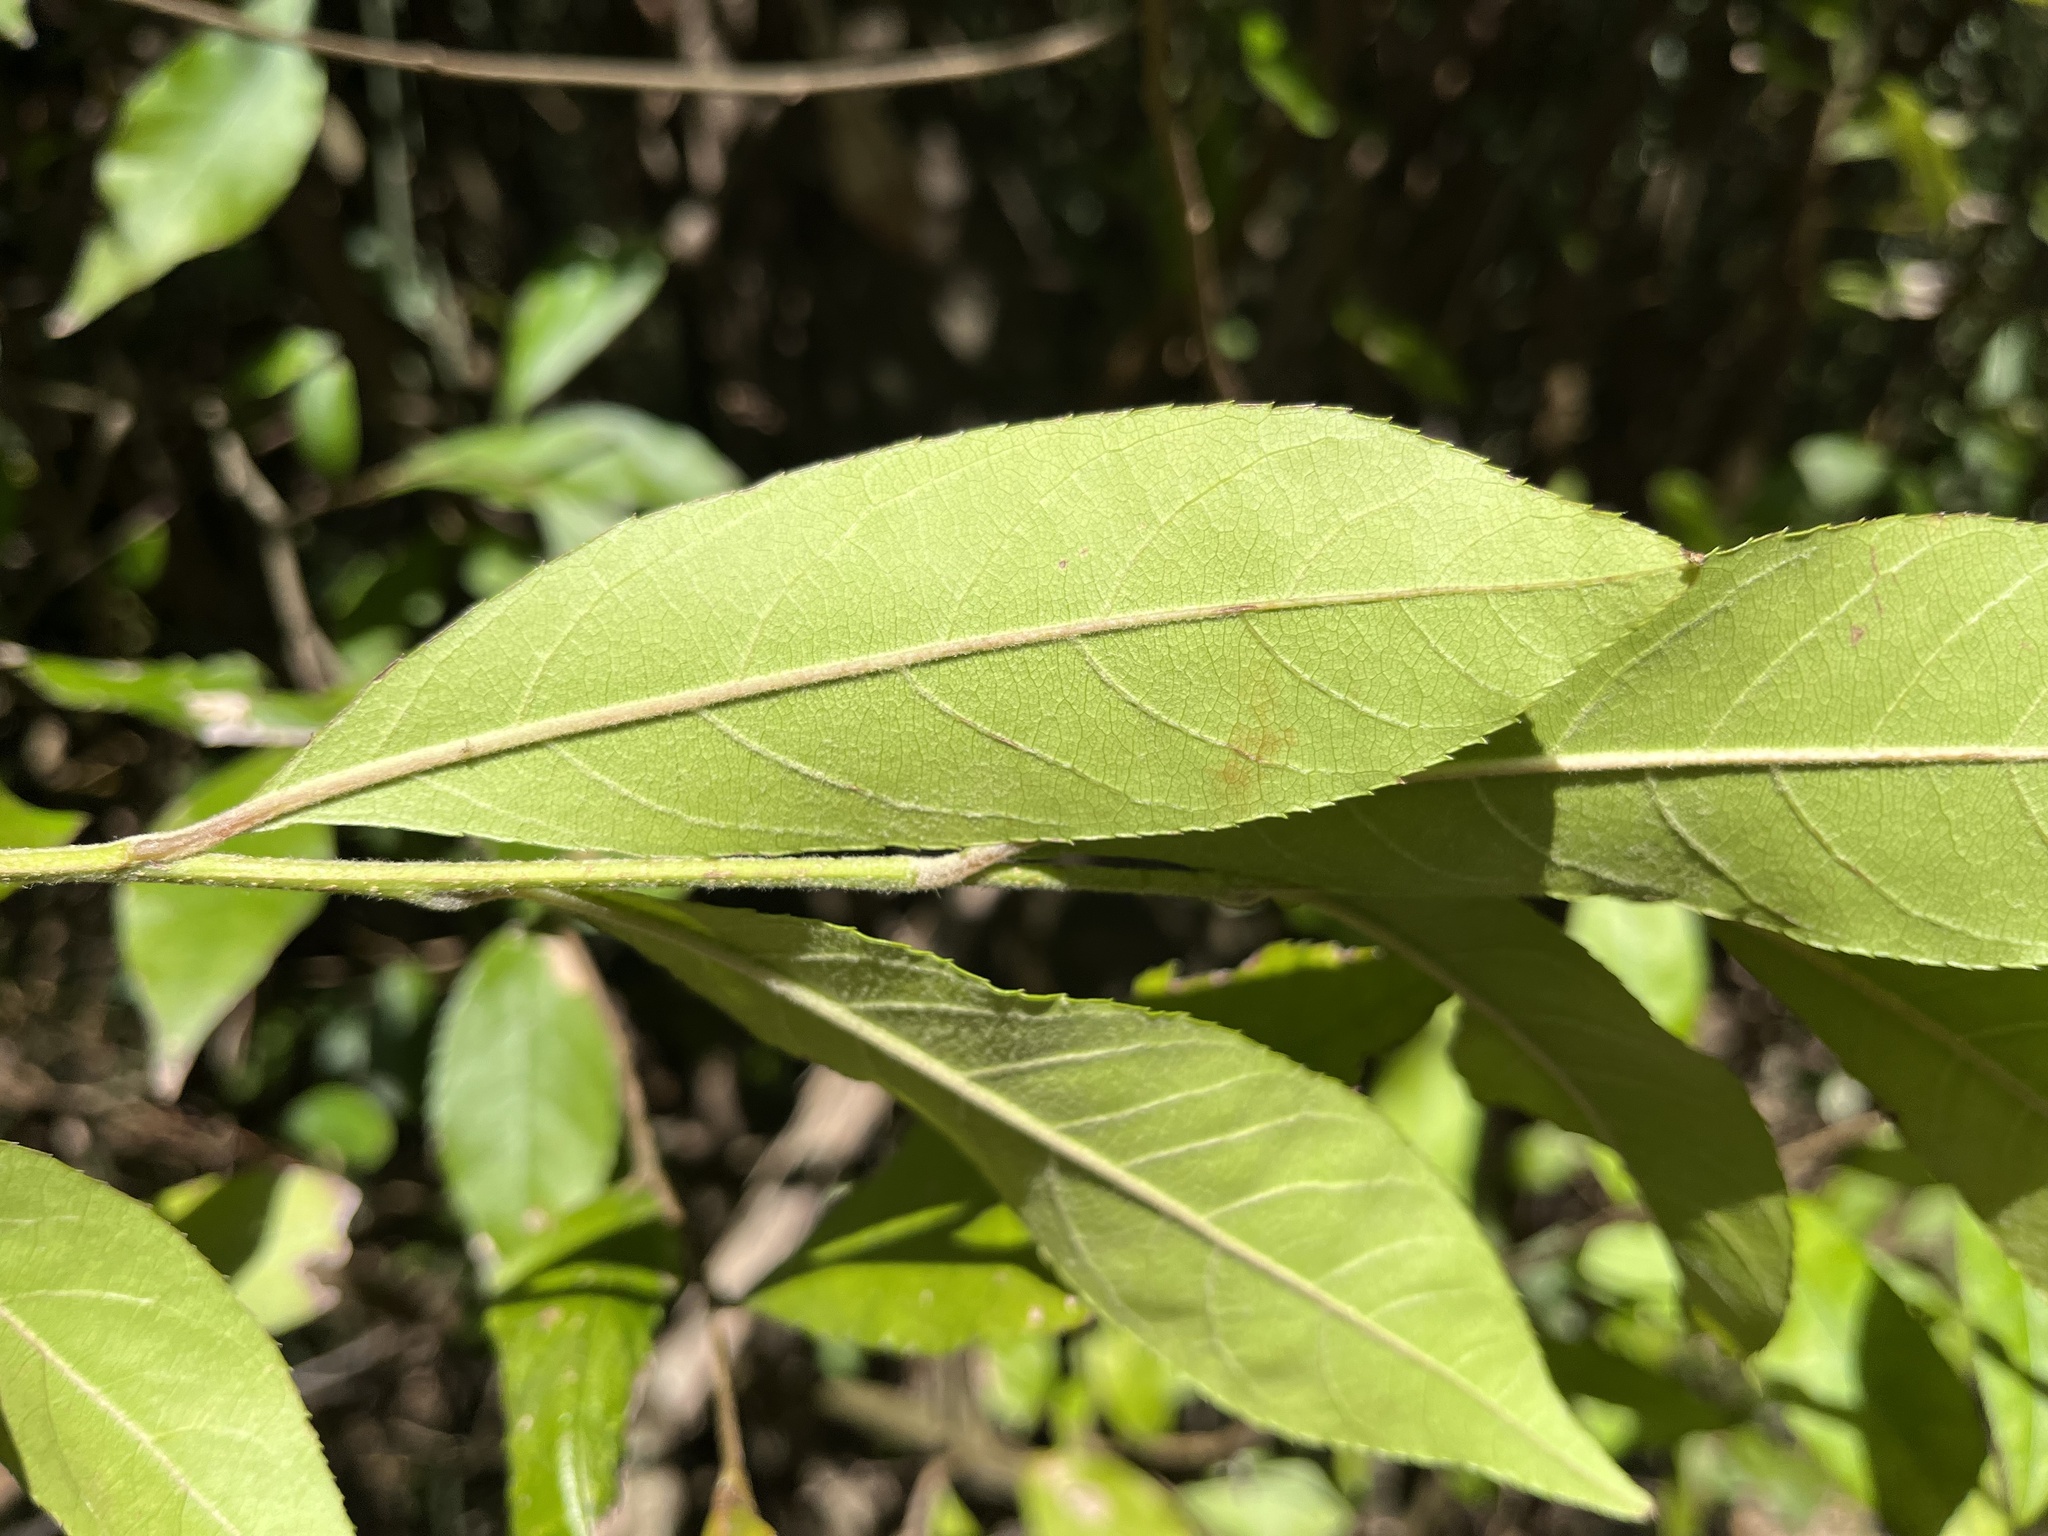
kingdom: Plantae
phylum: Tracheophyta
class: Magnoliopsida
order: Rosales
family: Rosaceae
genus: Pourthiaea
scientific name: Pourthiaea beauverdiana
